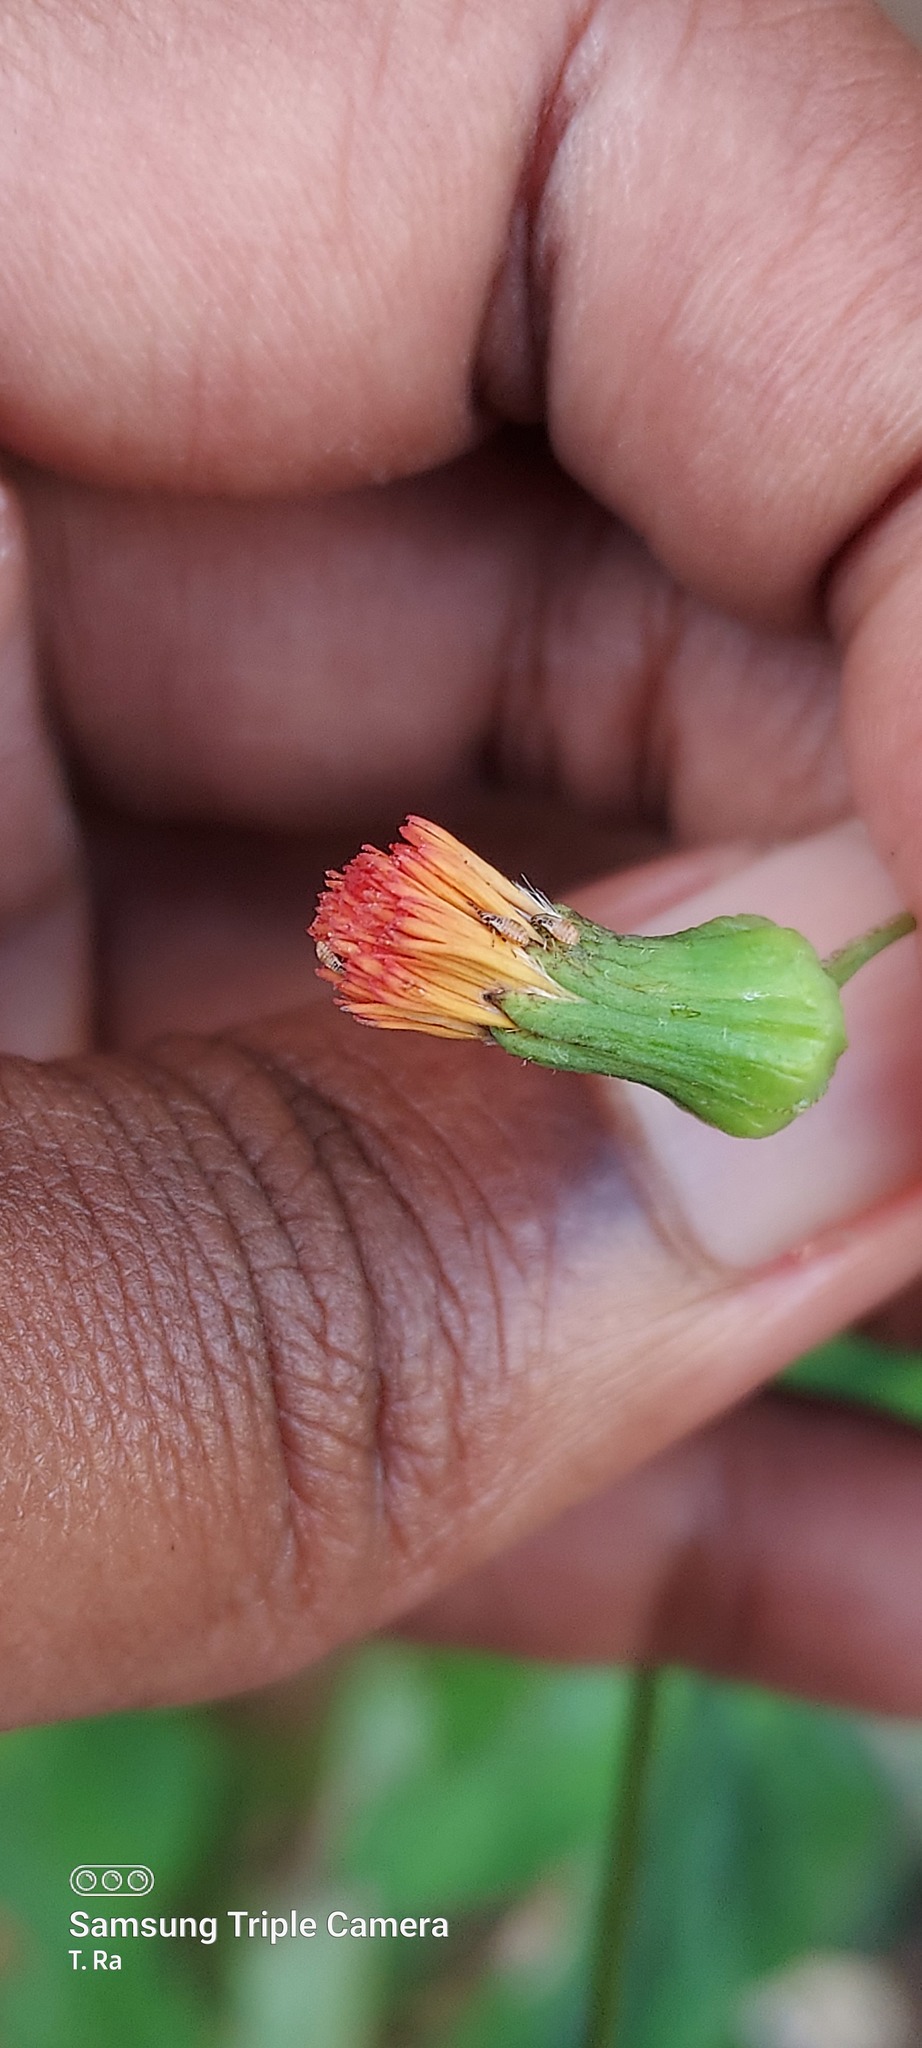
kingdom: Plantae
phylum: Tracheophyta
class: Magnoliopsida
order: Asterales
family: Asteraceae
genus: Emilia
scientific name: Emilia fosbergii
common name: Florida tasselflower
